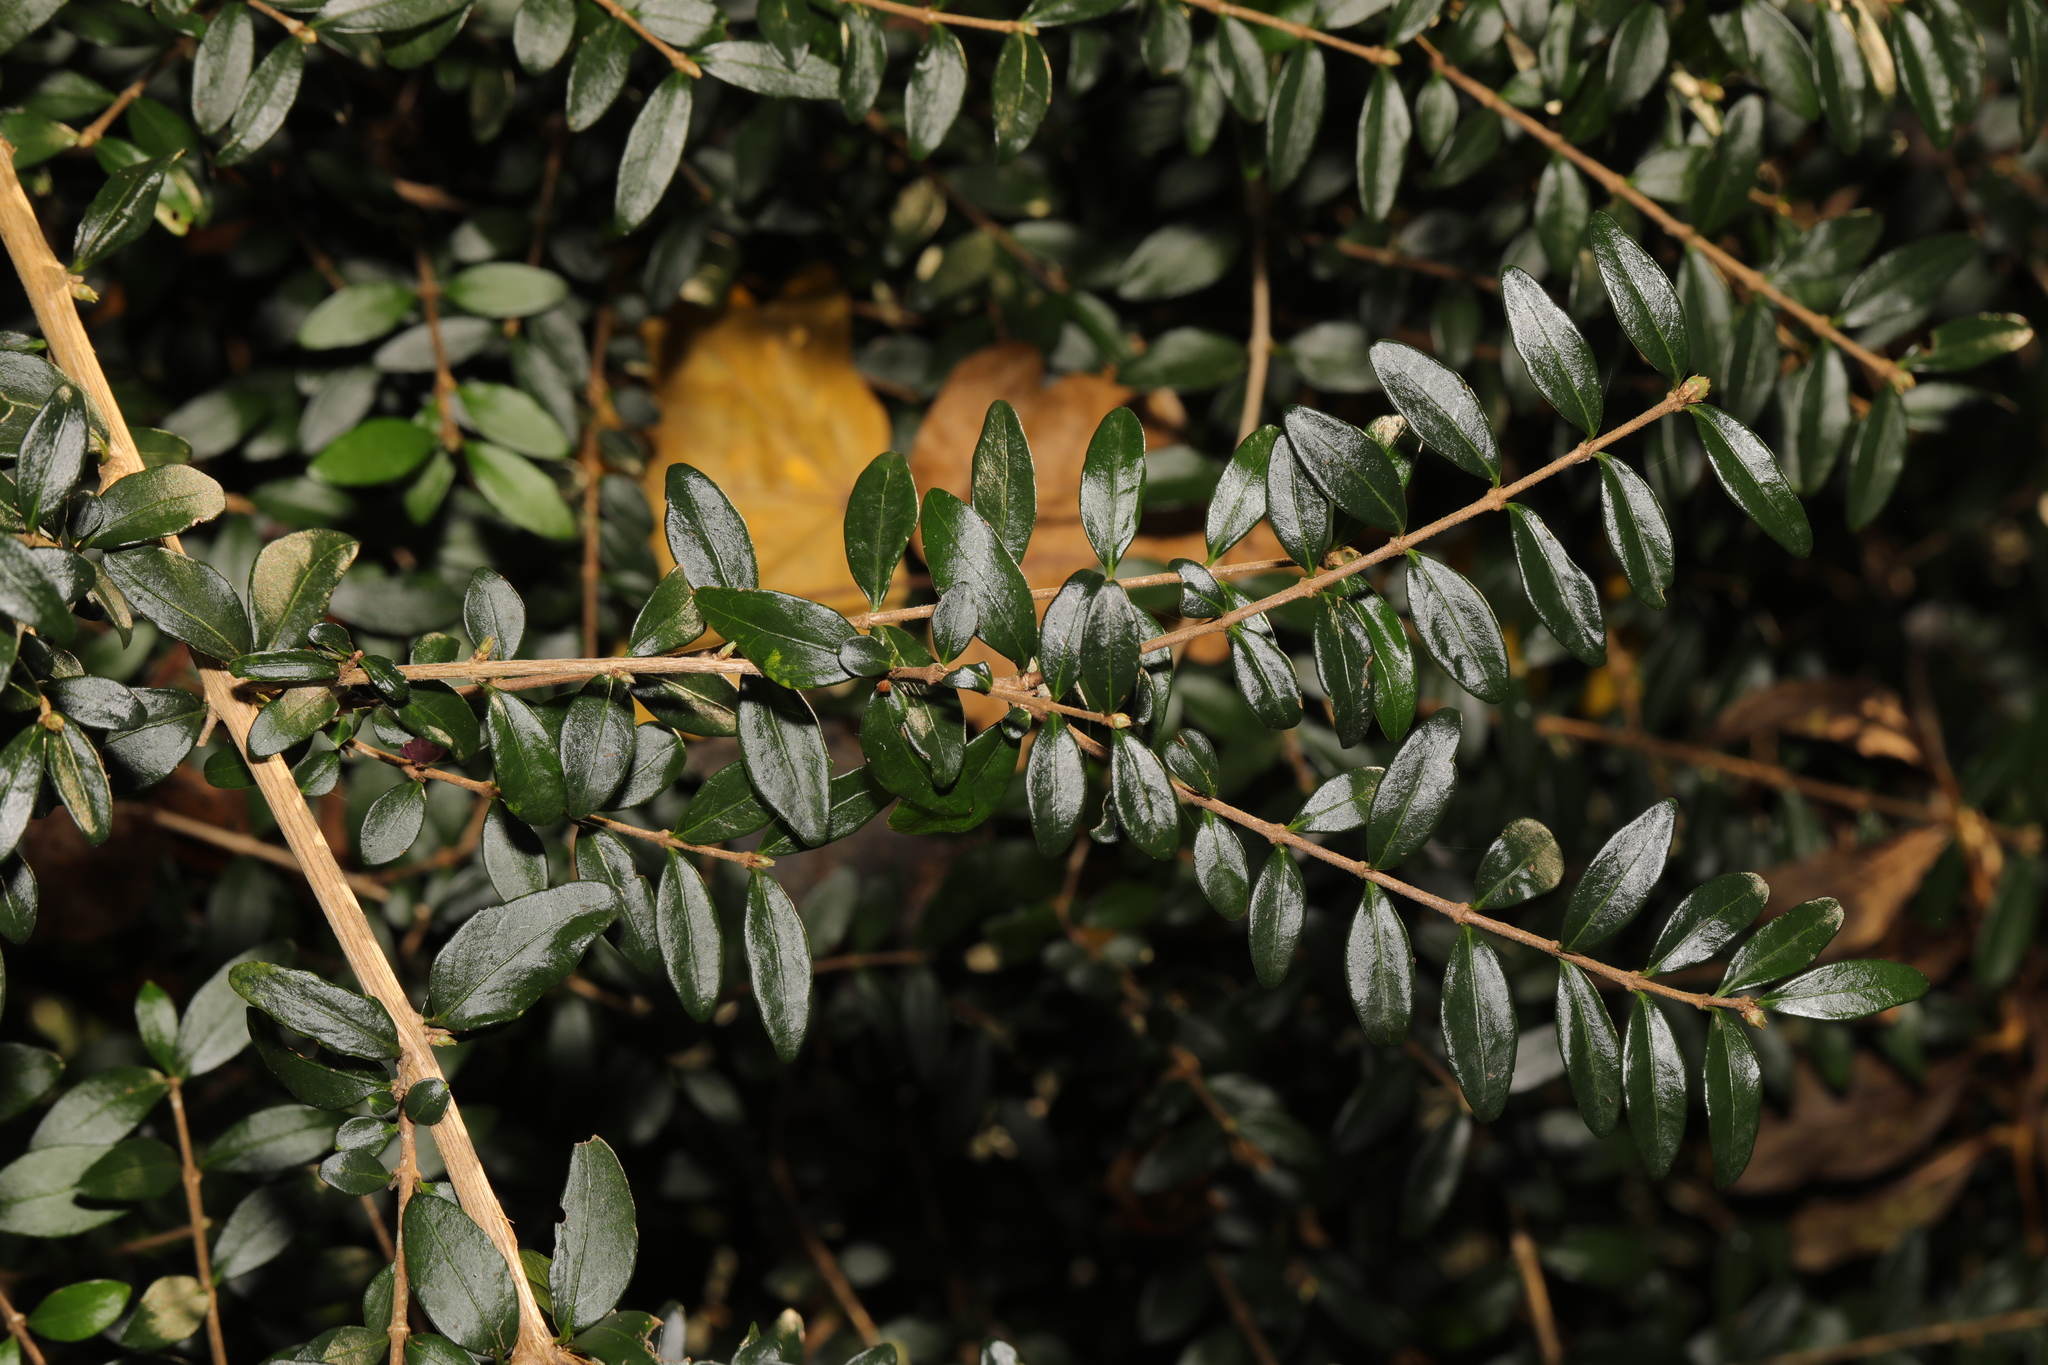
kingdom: Plantae
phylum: Tracheophyta
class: Magnoliopsida
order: Dipsacales
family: Caprifoliaceae
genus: Lonicera
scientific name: Lonicera ligustrina
